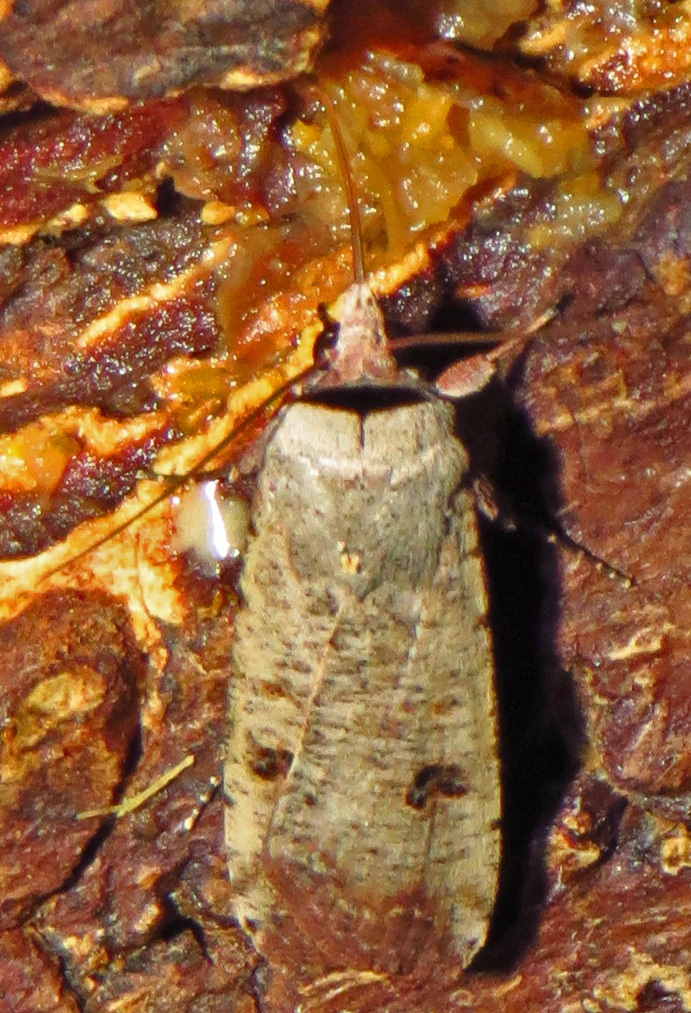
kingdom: Animalia
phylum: Arthropoda
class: Insecta
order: Lepidoptera
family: Noctuidae
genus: Anicla
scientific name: Anicla infecta
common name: Green cutworm
